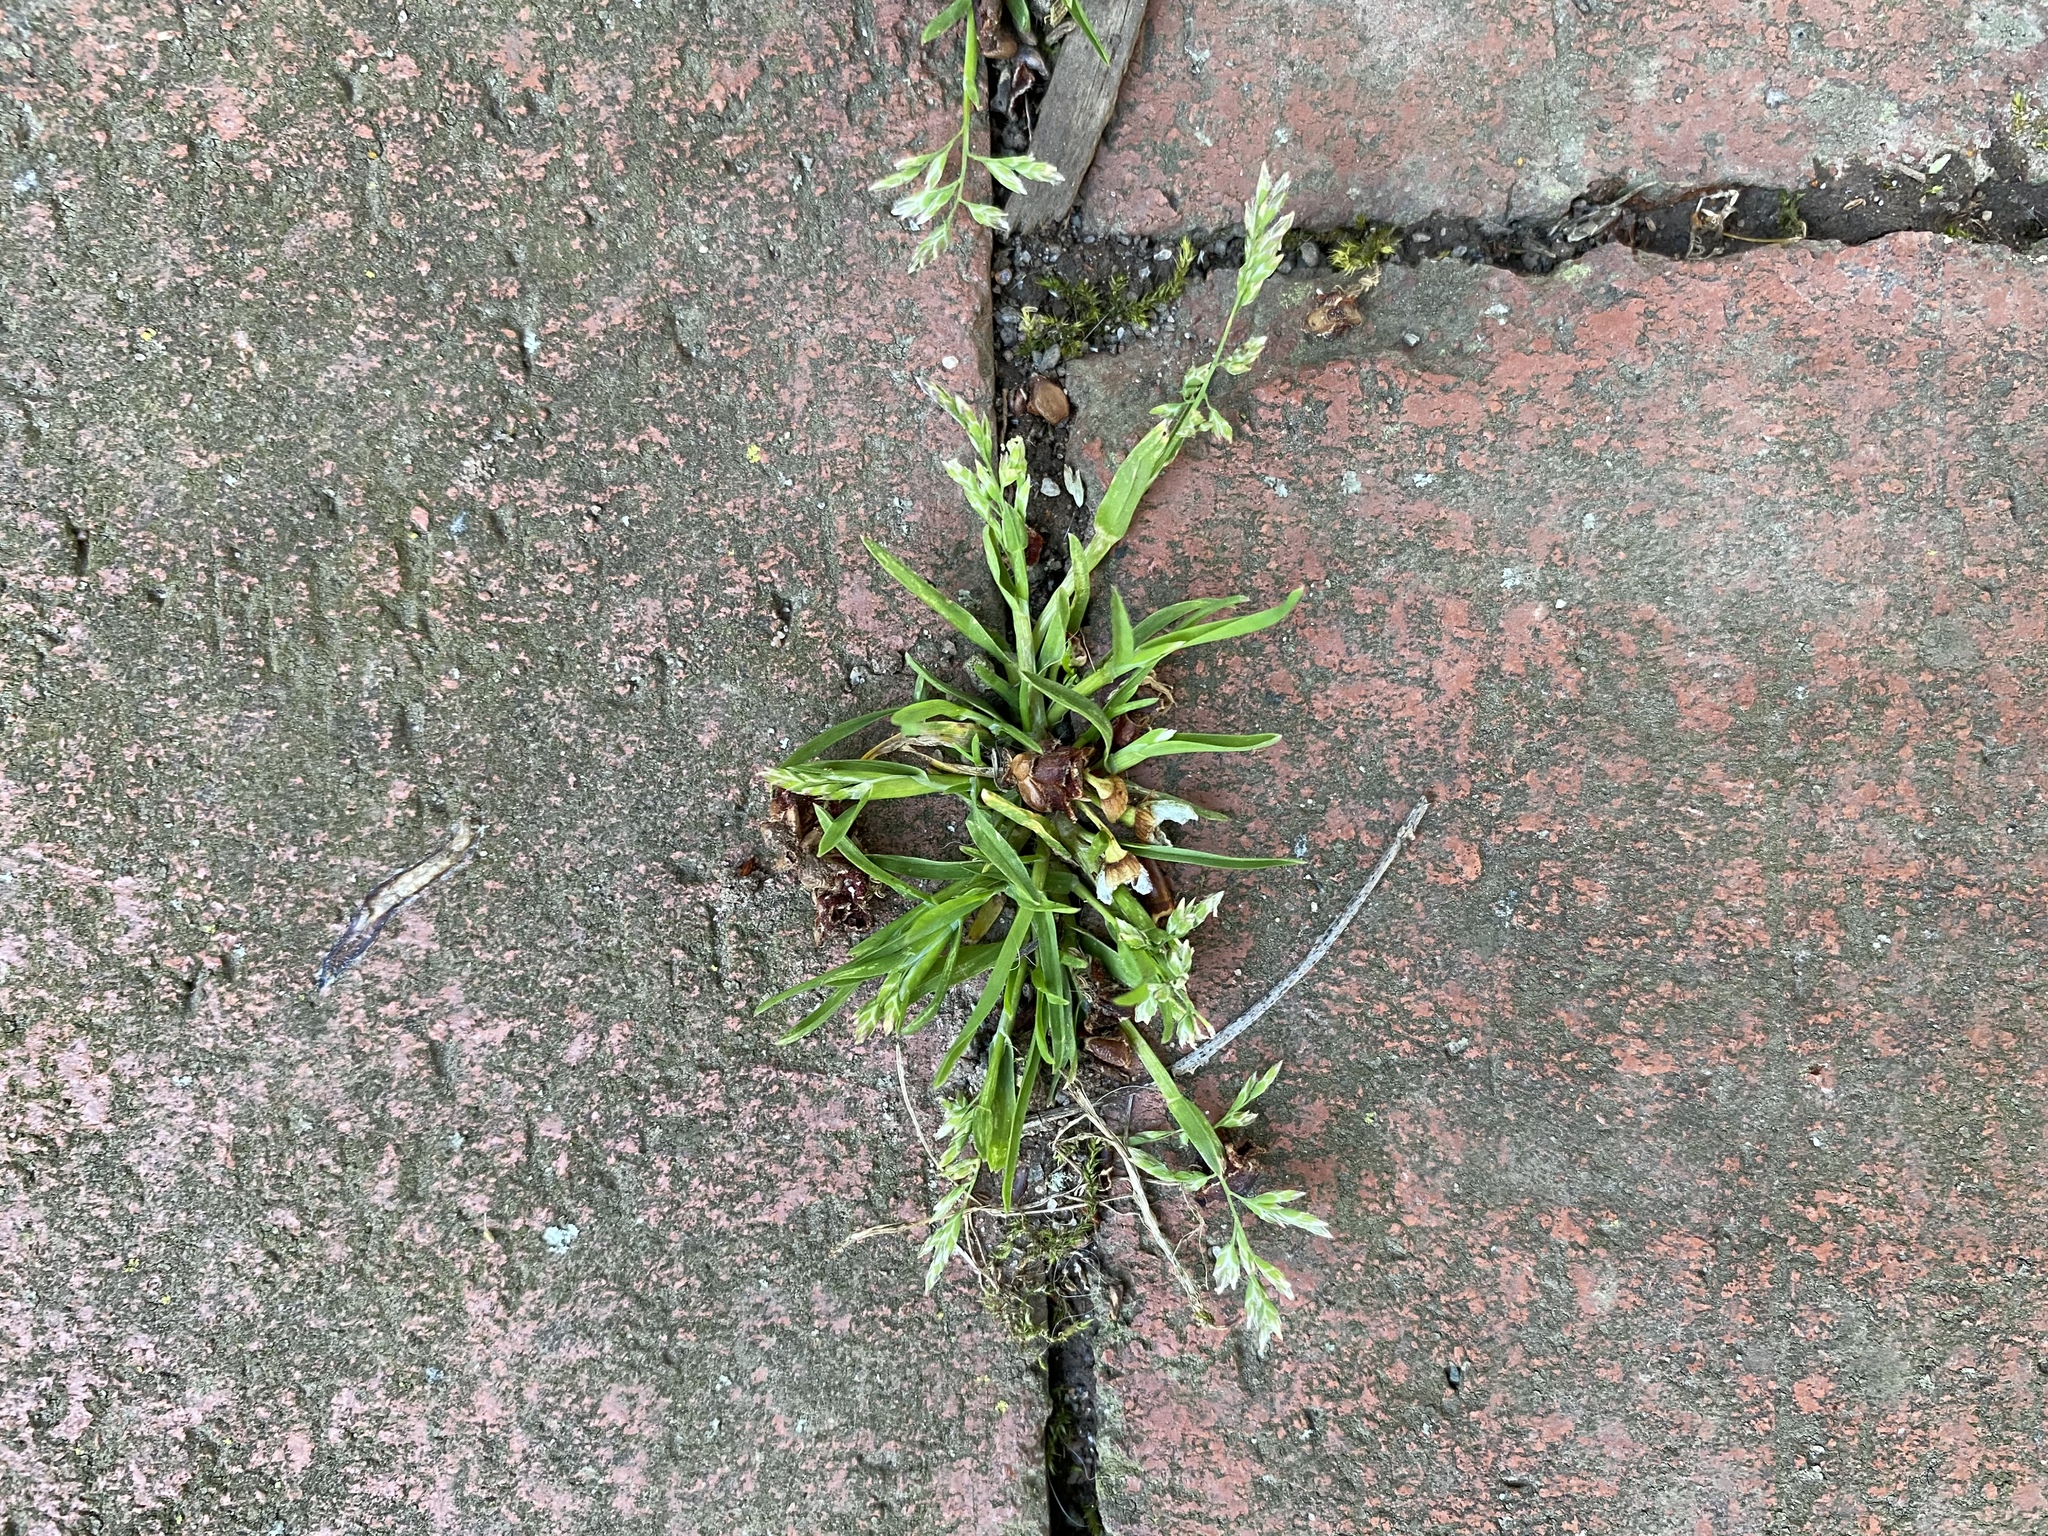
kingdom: Plantae
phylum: Tracheophyta
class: Liliopsida
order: Poales
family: Poaceae
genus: Poa
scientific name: Poa annua
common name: Annual bluegrass
